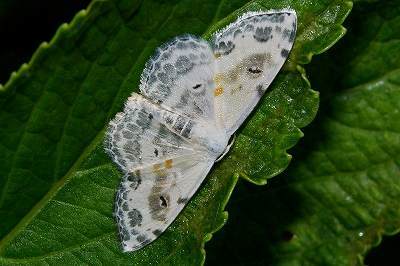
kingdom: Animalia
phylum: Arthropoda
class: Insecta
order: Lepidoptera
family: Geometridae
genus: Scopula
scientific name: Scopula
